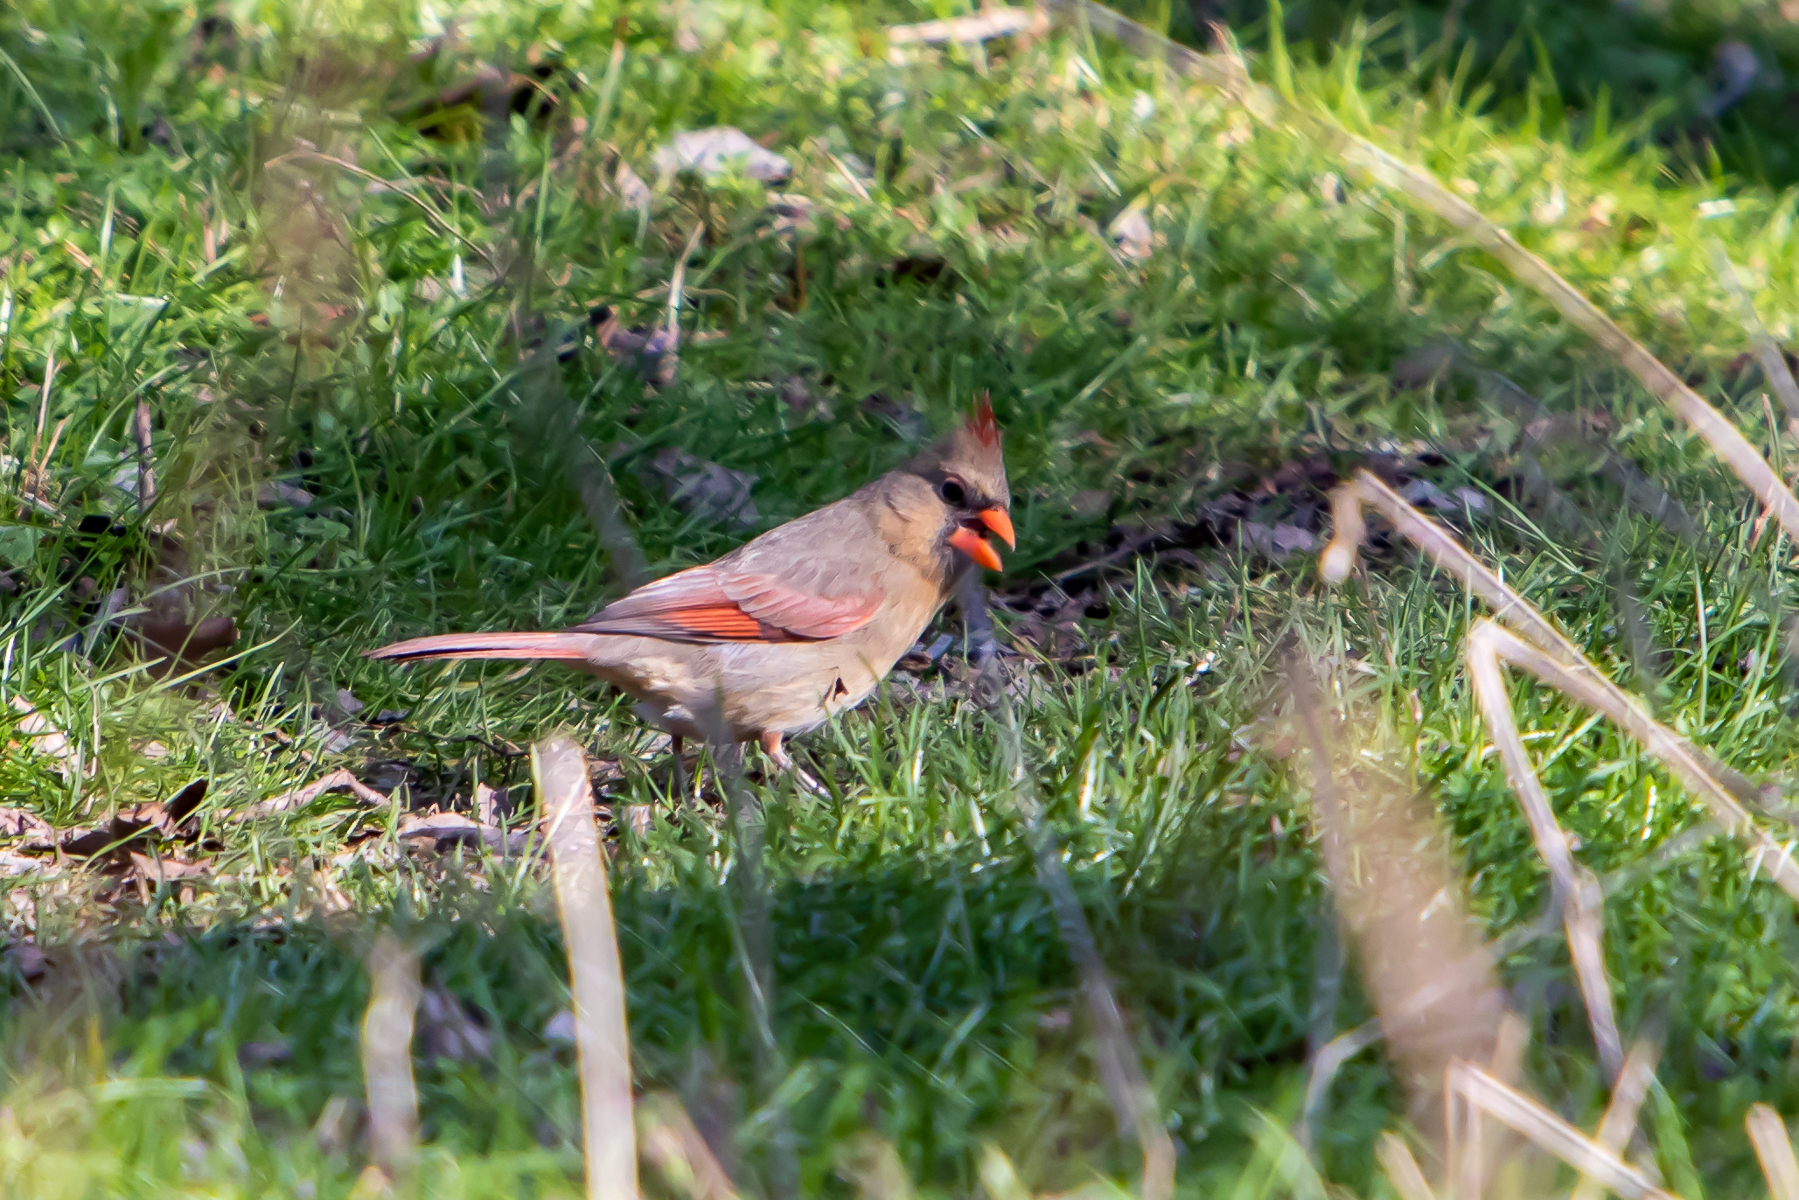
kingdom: Animalia
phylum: Chordata
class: Aves
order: Passeriformes
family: Cardinalidae
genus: Cardinalis
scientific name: Cardinalis cardinalis
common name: Northern cardinal
